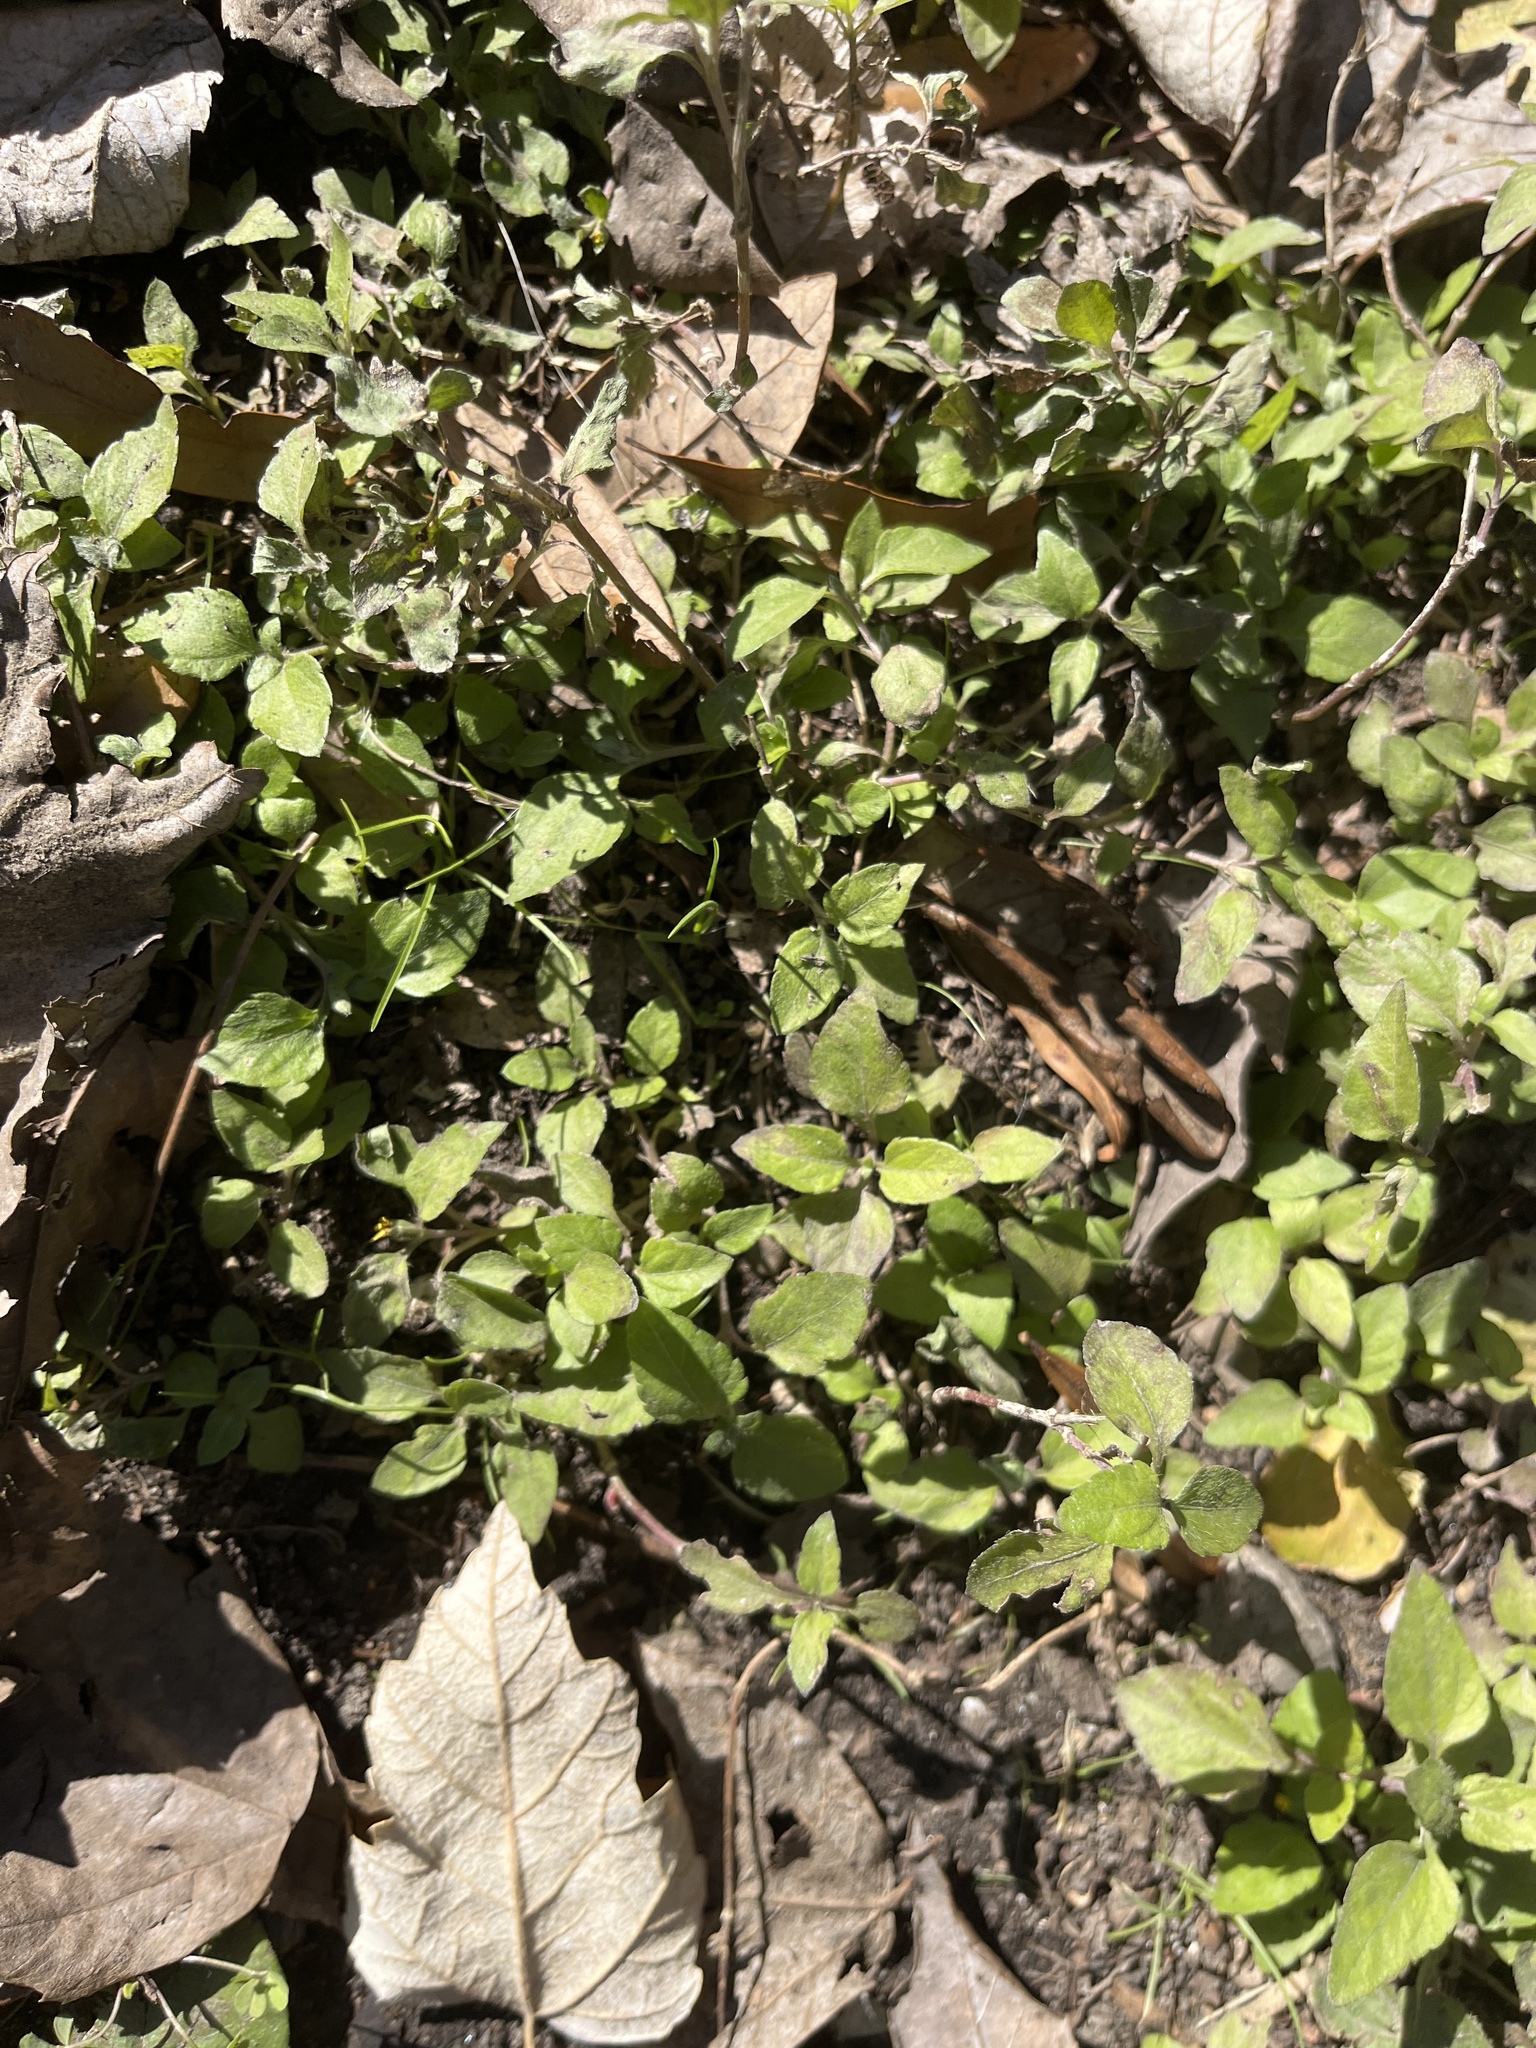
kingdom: Plantae
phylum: Tracheophyta
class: Magnoliopsida
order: Asterales
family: Asteraceae
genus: Calyptocarpus
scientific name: Calyptocarpus vialis
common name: Straggler daisy
